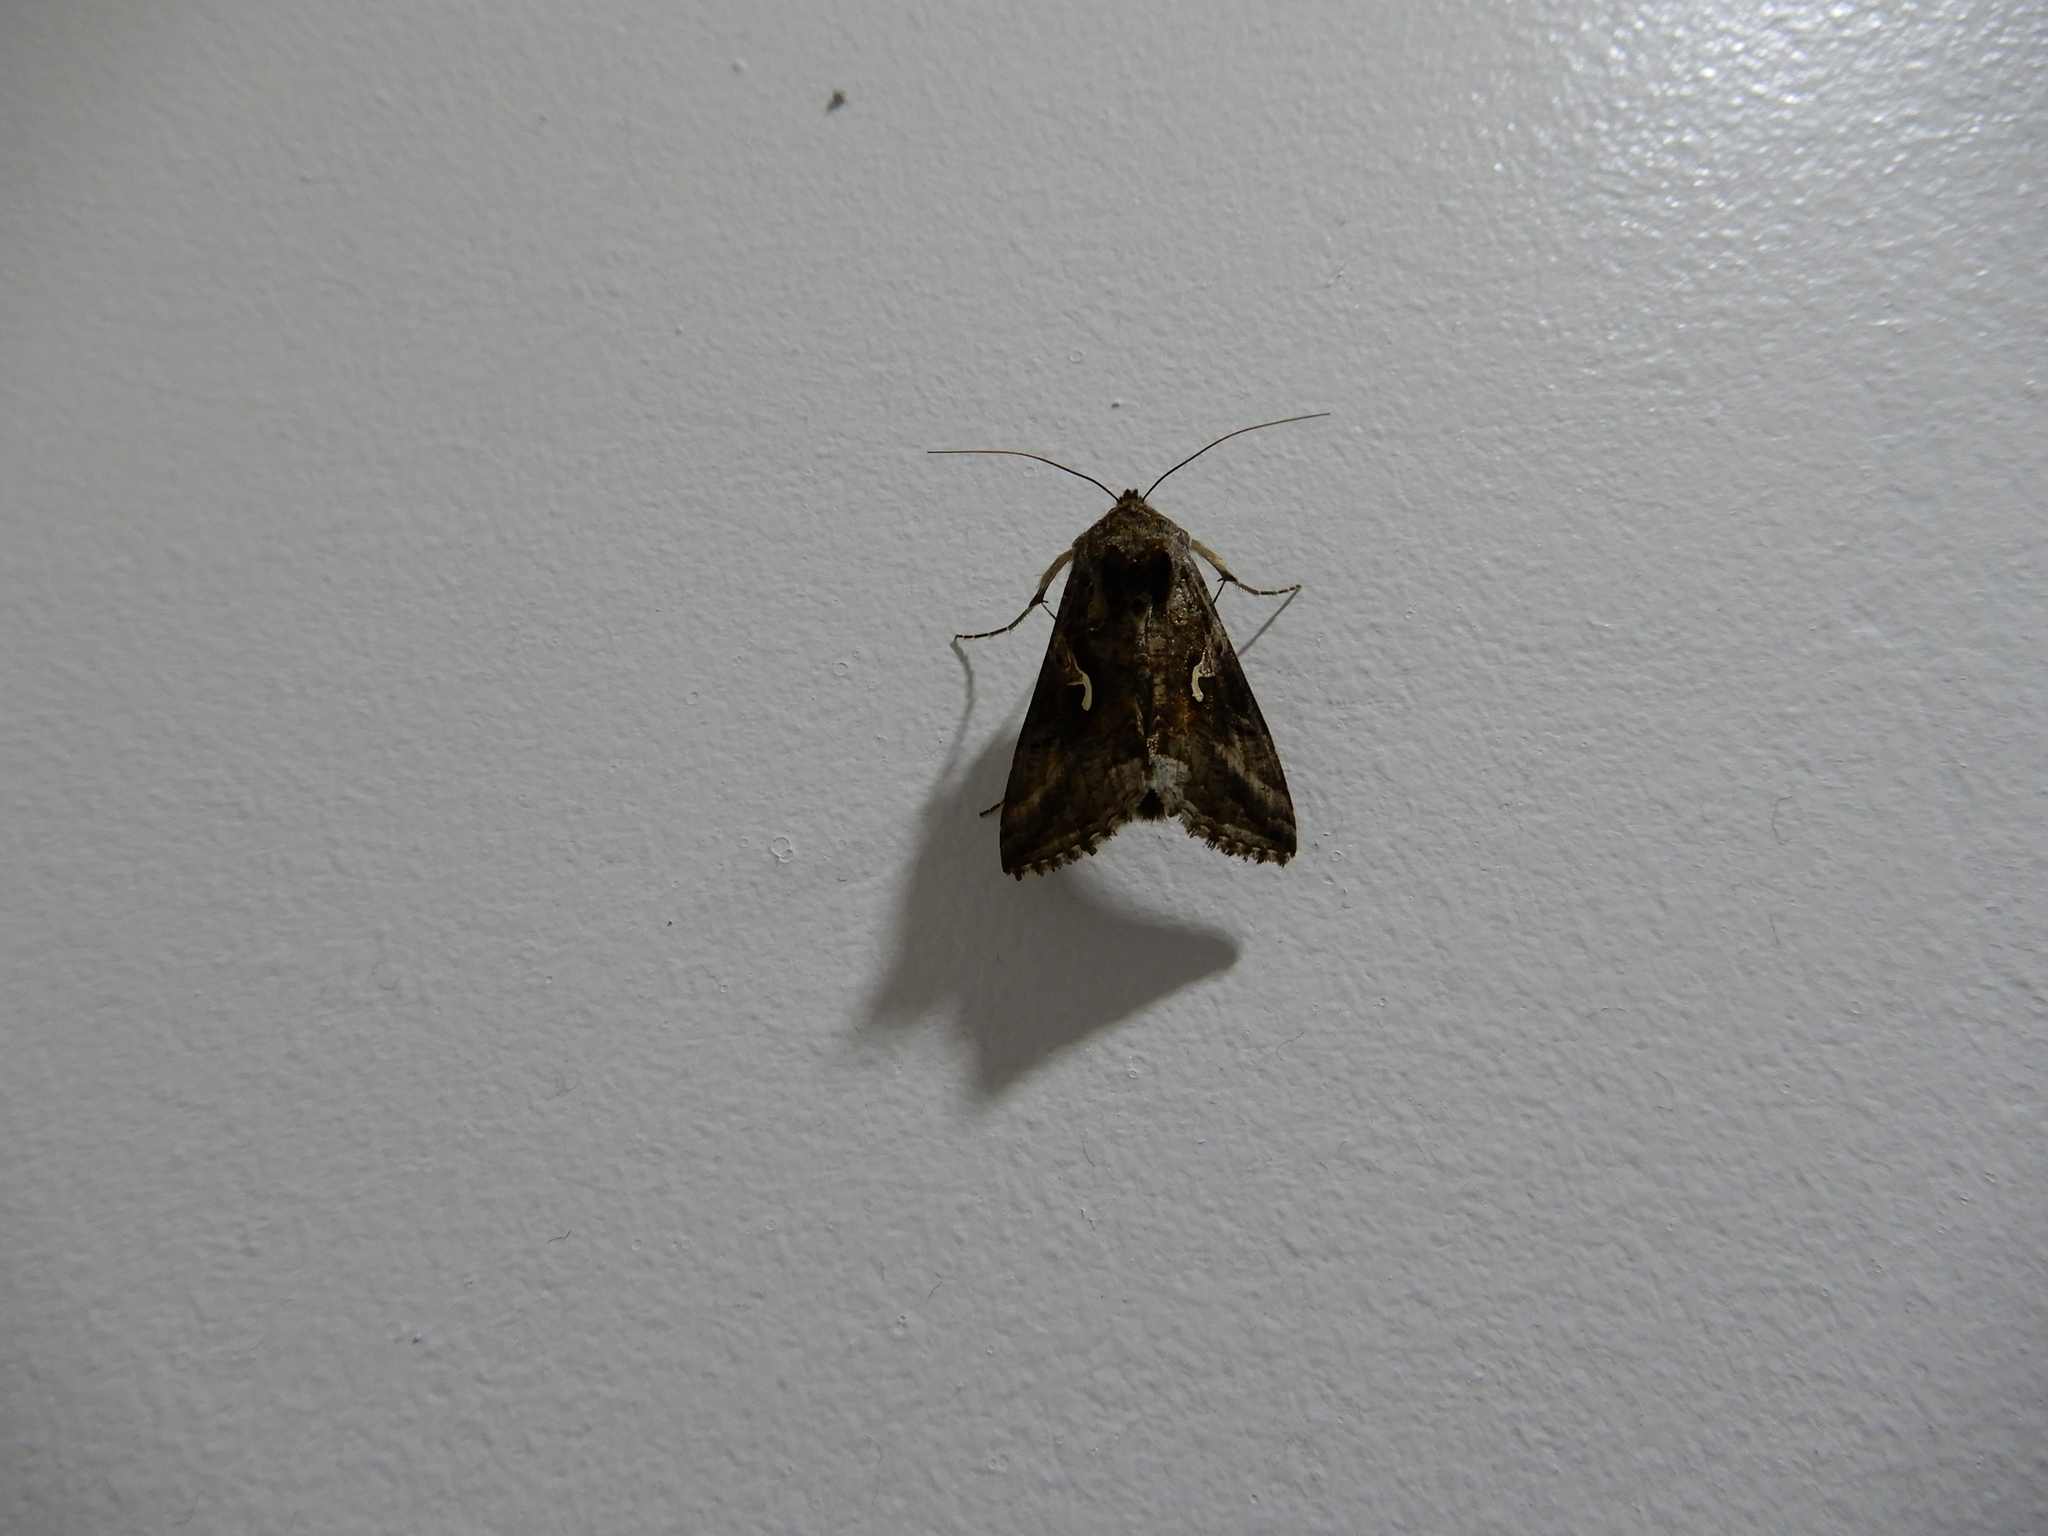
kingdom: Animalia
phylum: Arthropoda
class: Insecta
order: Lepidoptera
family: Noctuidae
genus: Autographa
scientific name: Autographa gamma
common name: Silver y
